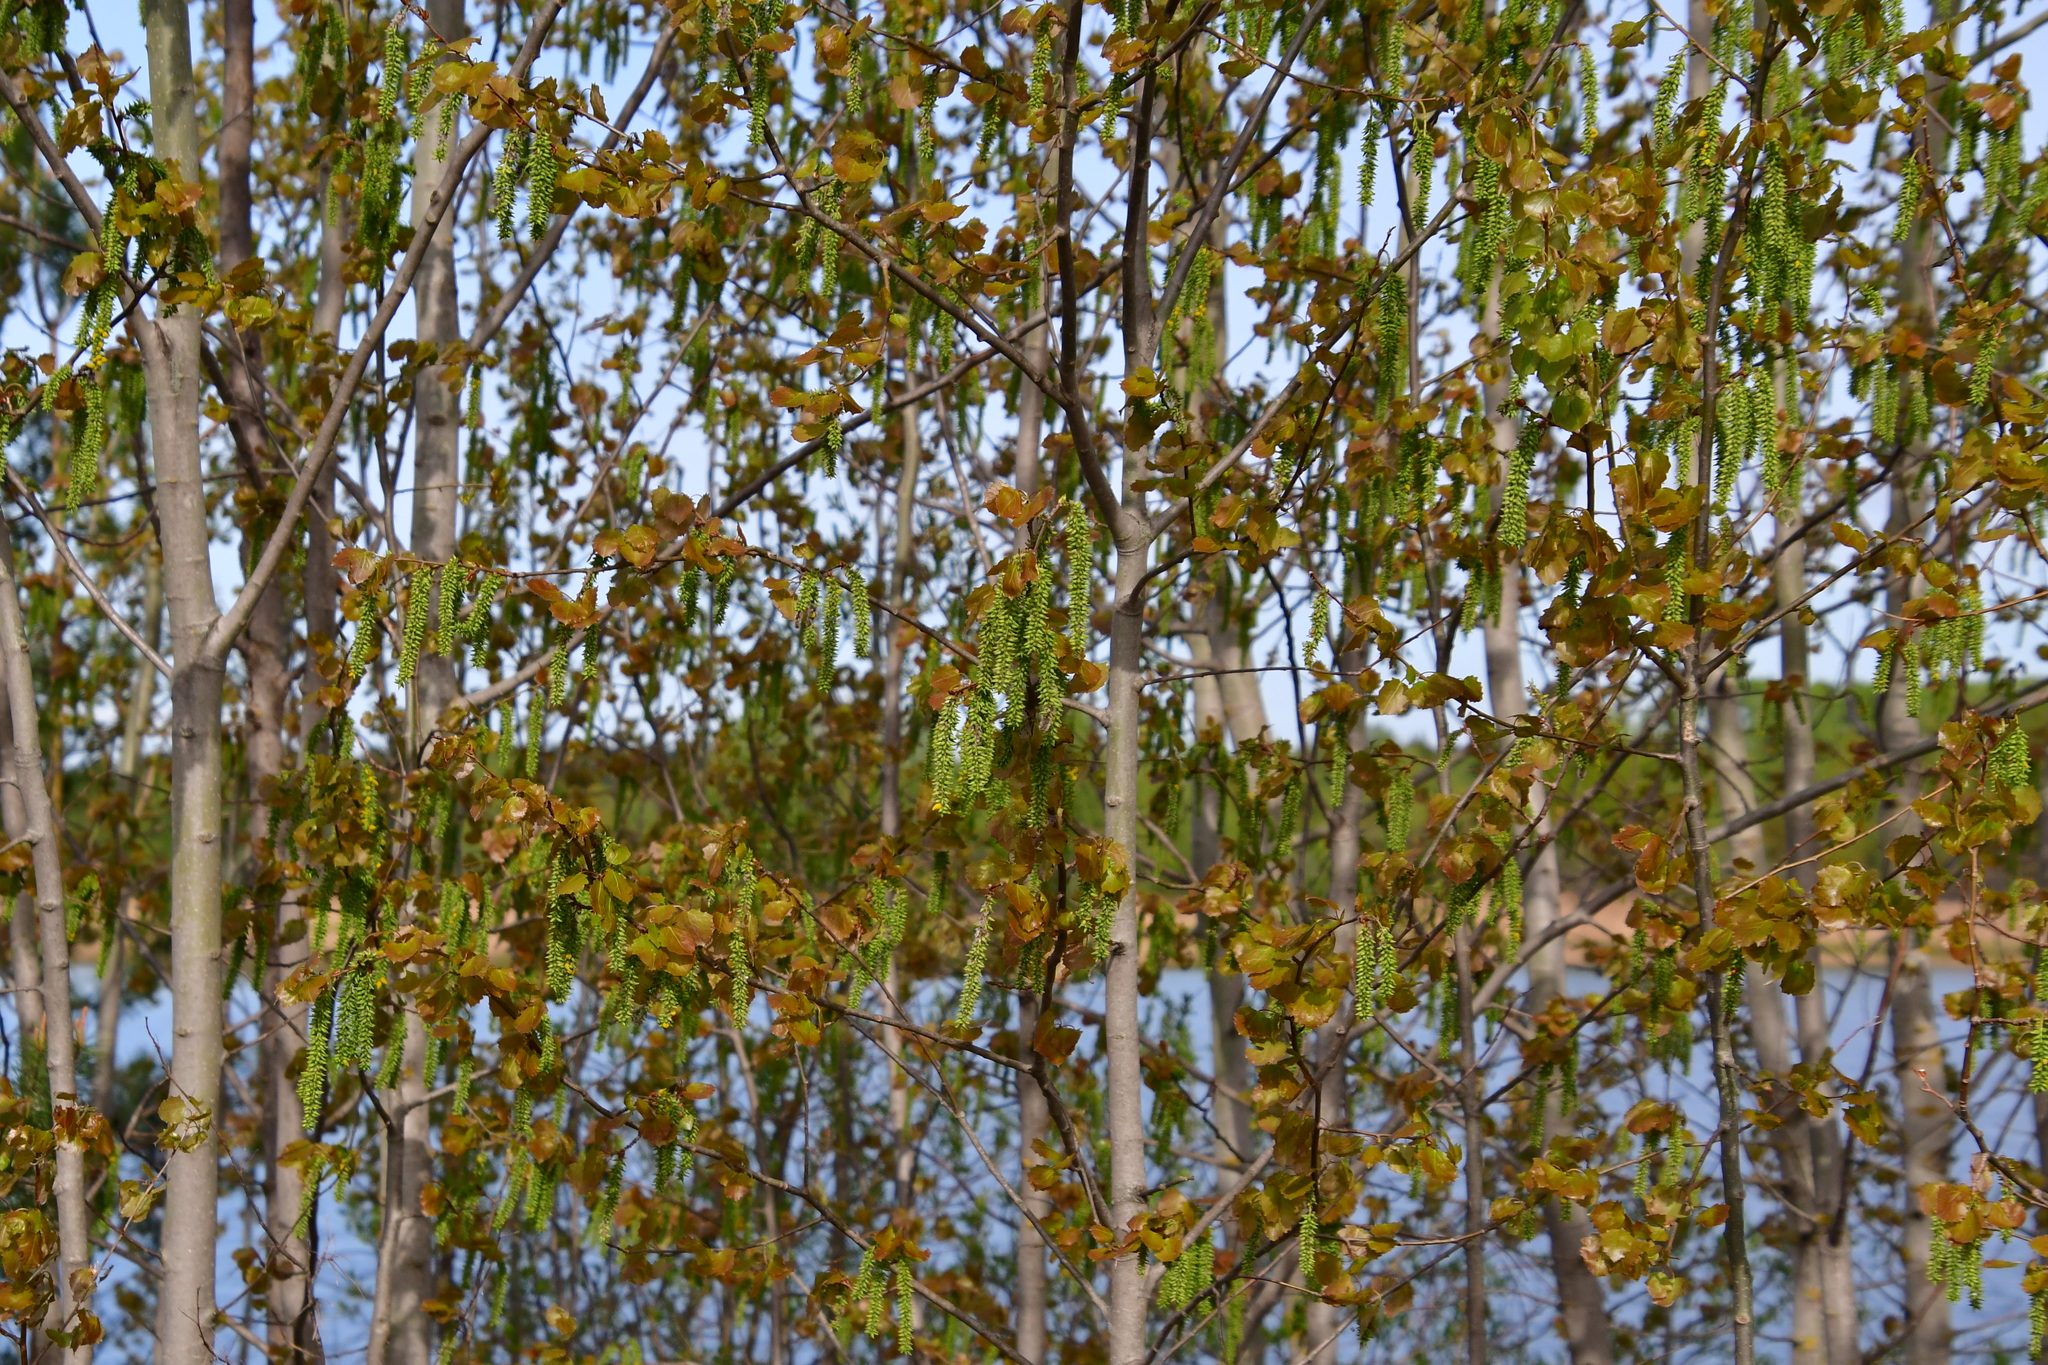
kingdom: Plantae
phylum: Tracheophyta
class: Magnoliopsida
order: Malpighiales
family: Salicaceae
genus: Populus
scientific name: Populus tremula
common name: European aspen
